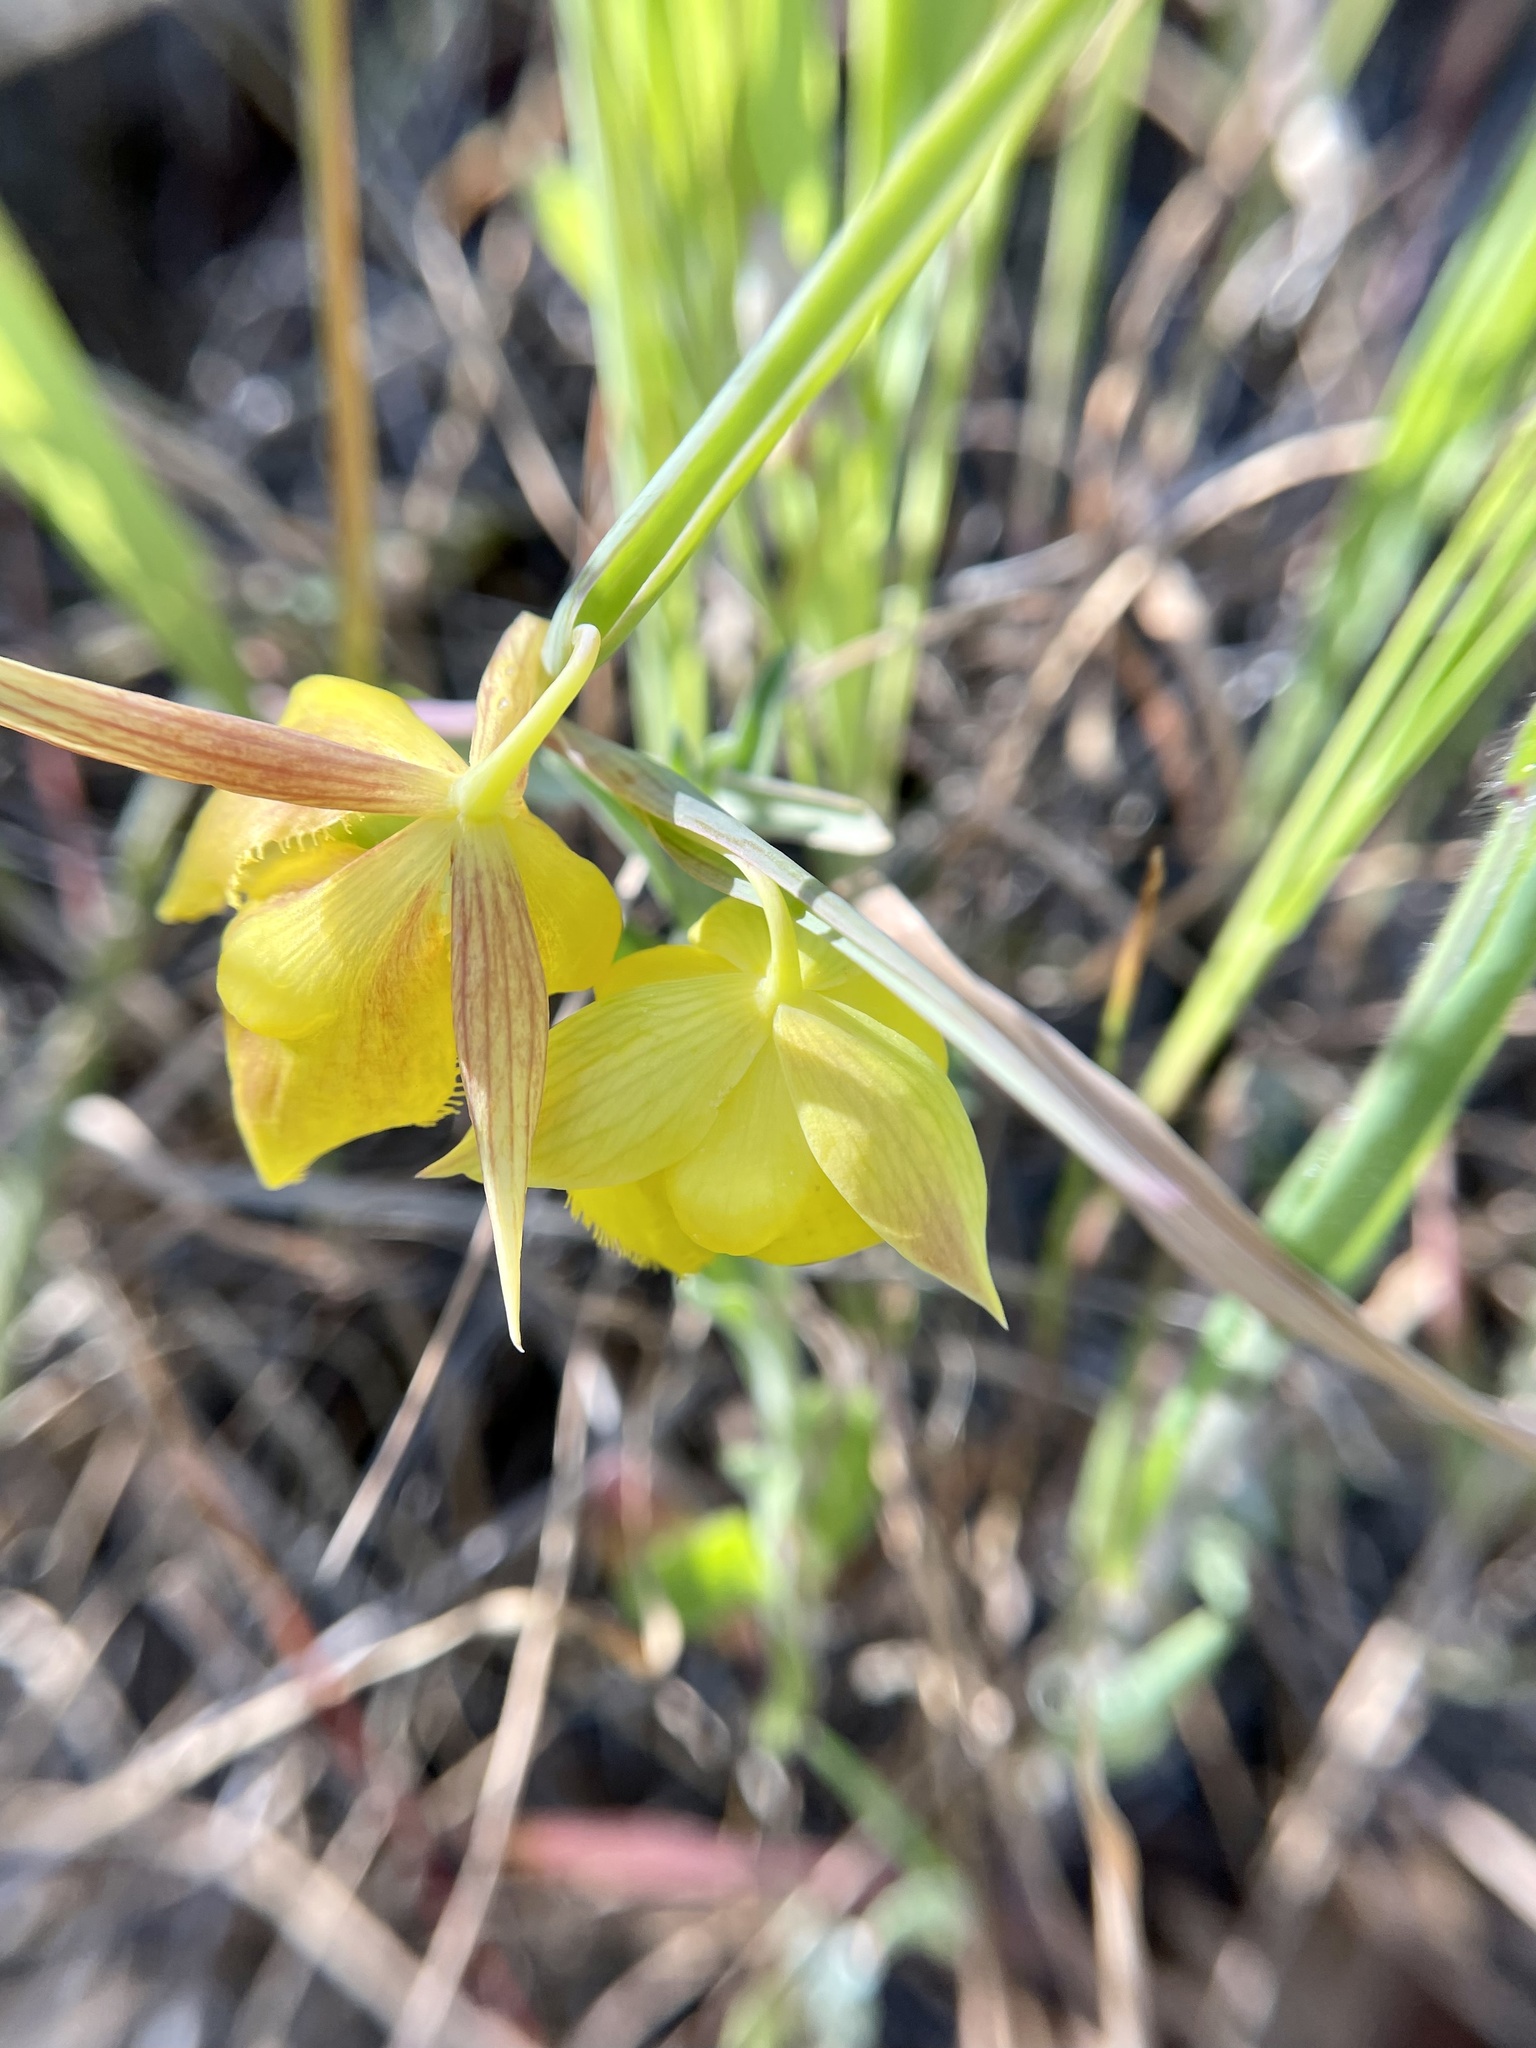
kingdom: Plantae
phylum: Tracheophyta
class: Liliopsida
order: Liliales
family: Liliaceae
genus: Calochortus
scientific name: Calochortus pulchellus
